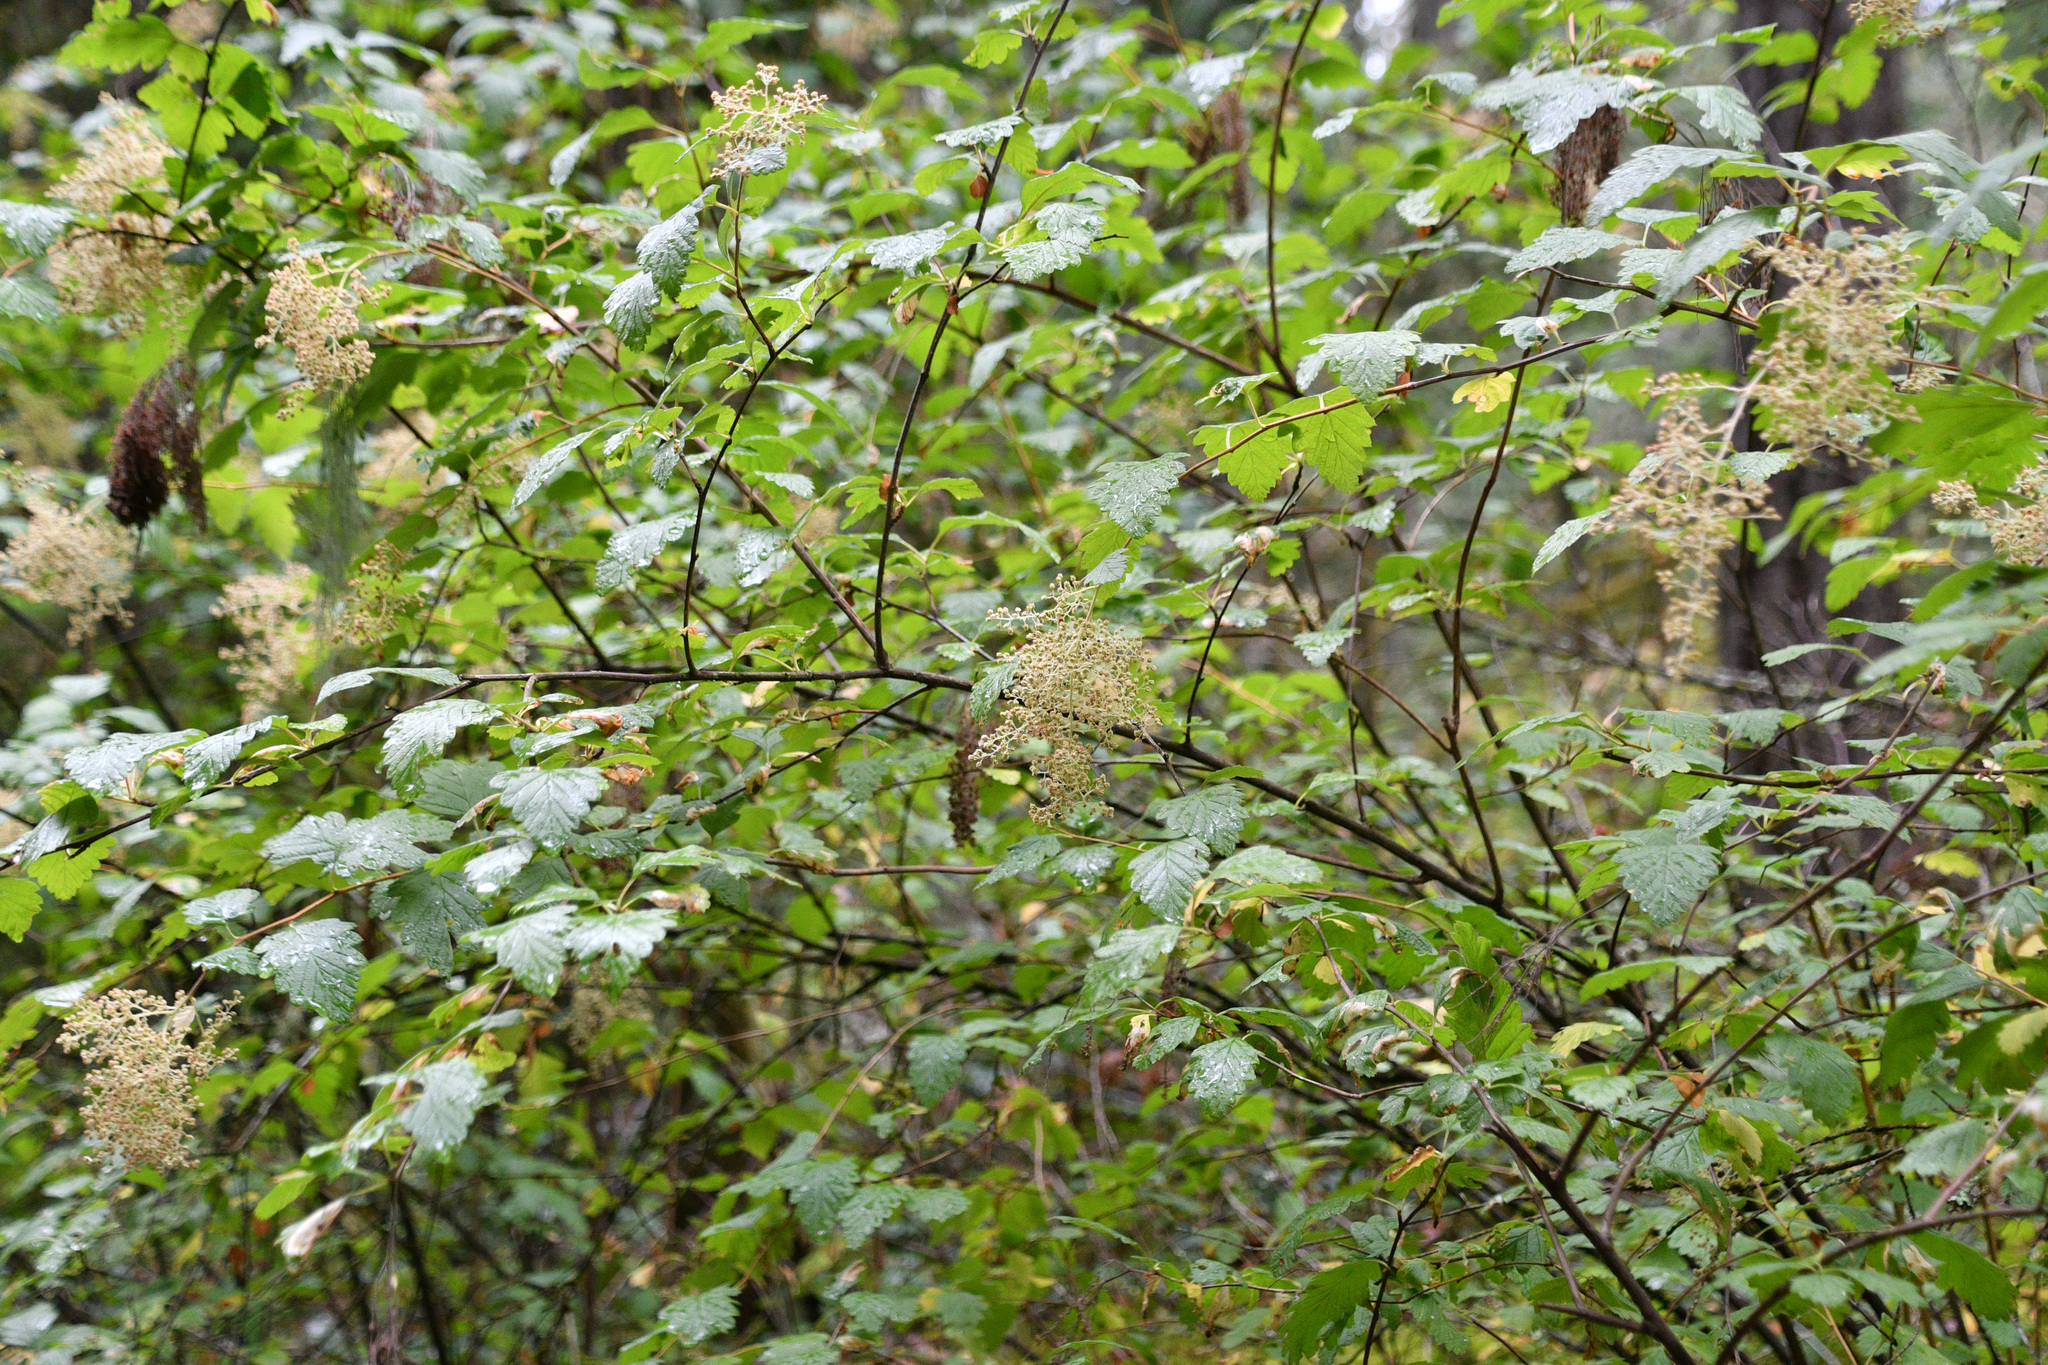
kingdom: Plantae
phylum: Tracheophyta
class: Magnoliopsida
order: Rosales
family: Rosaceae
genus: Holodiscus
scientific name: Holodiscus discolor
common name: Oceanspray
